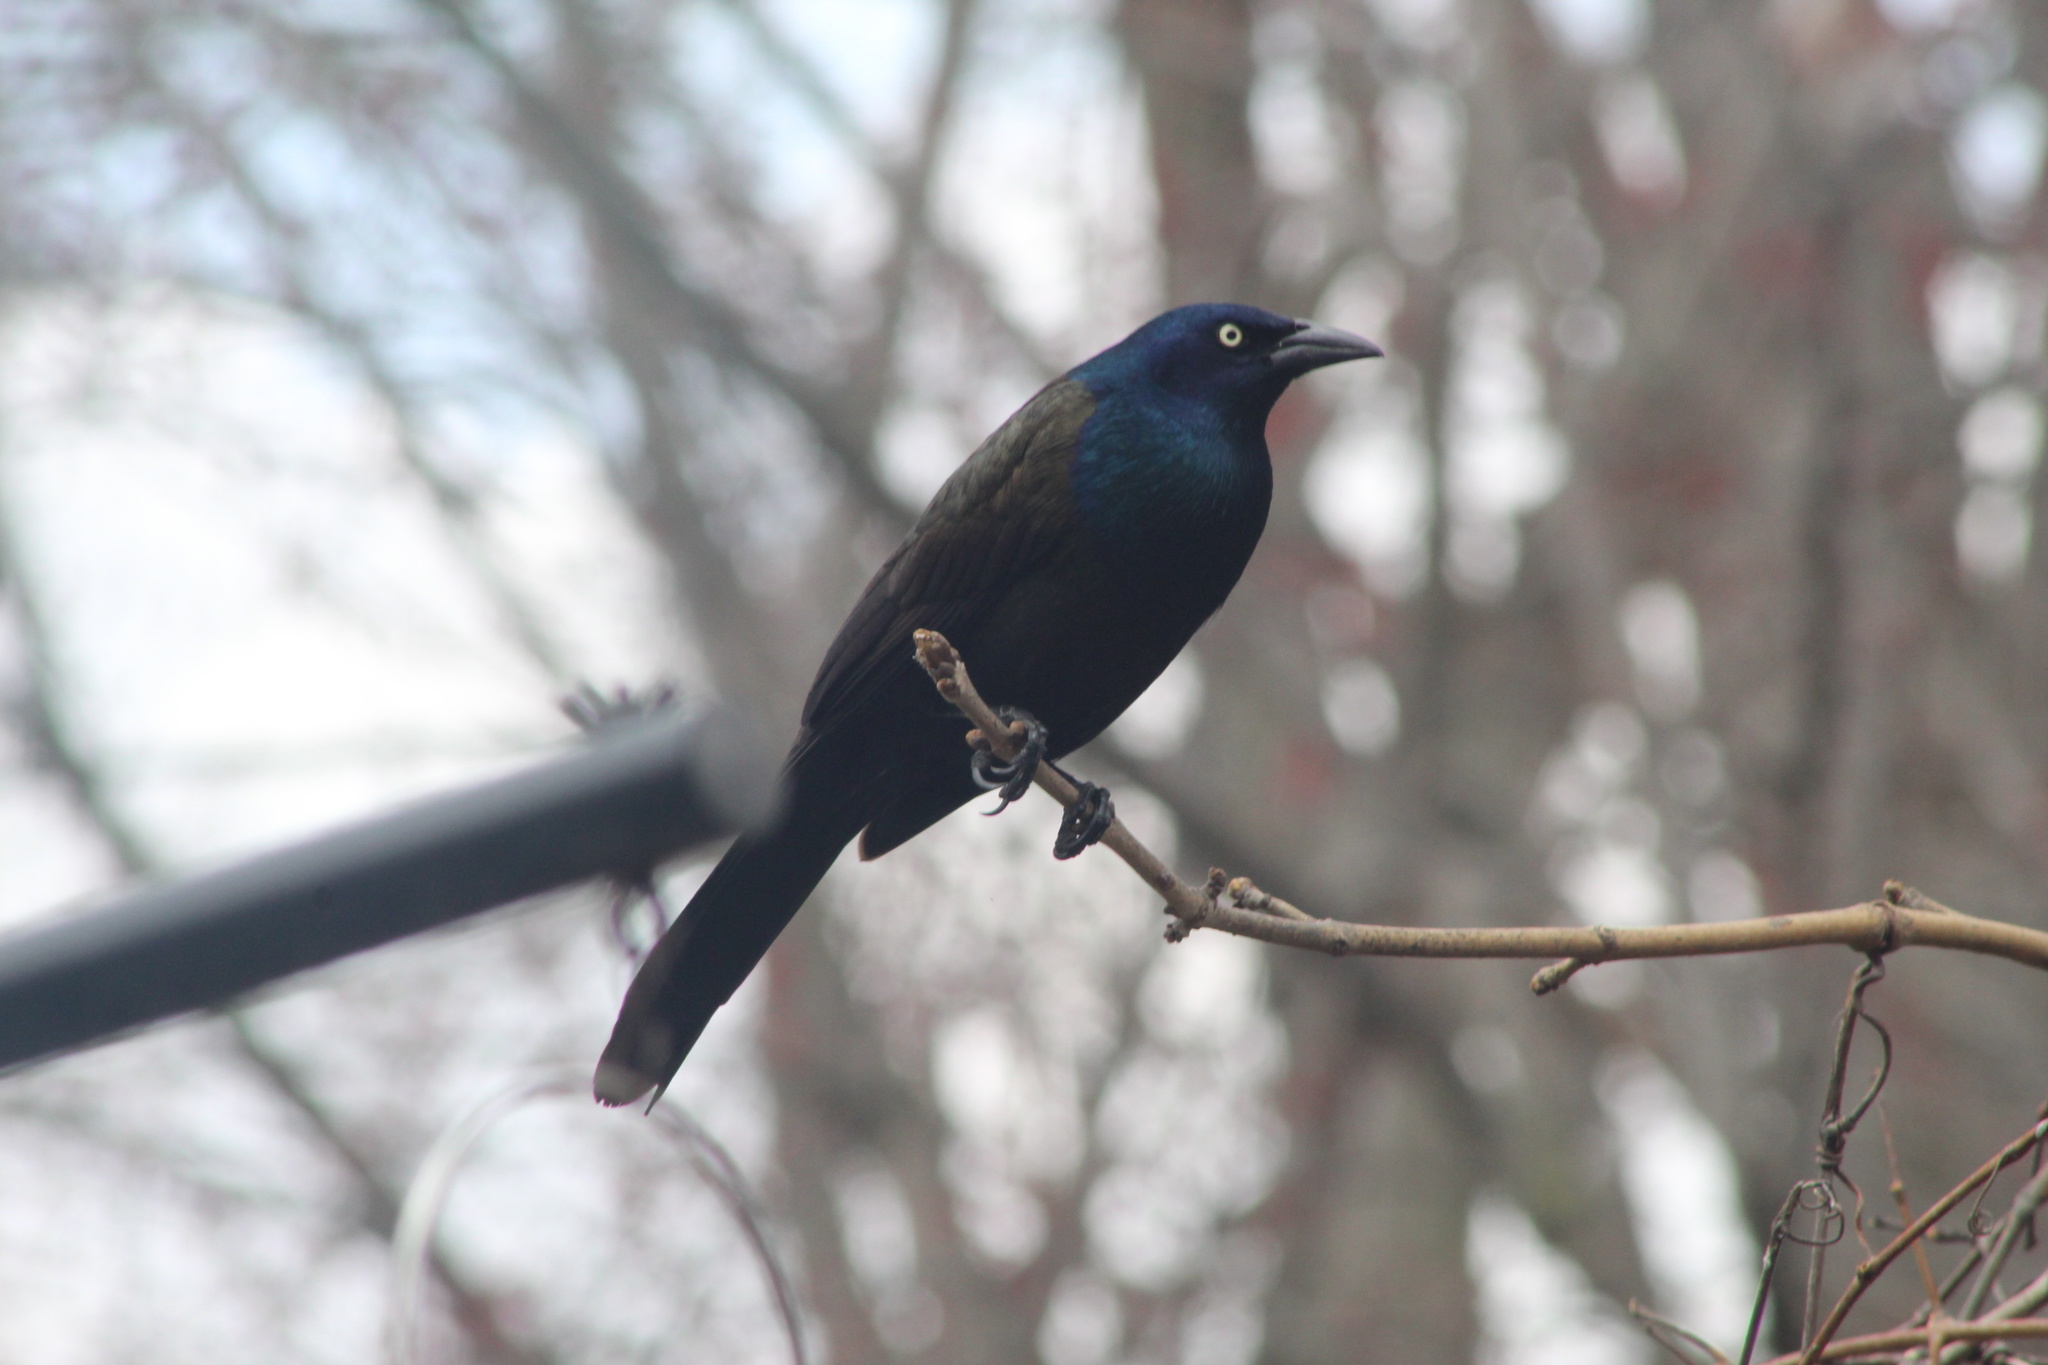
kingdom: Animalia
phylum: Chordata
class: Aves
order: Passeriformes
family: Icteridae
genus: Quiscalus
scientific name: Quiscalus quiscula
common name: Common grackle
